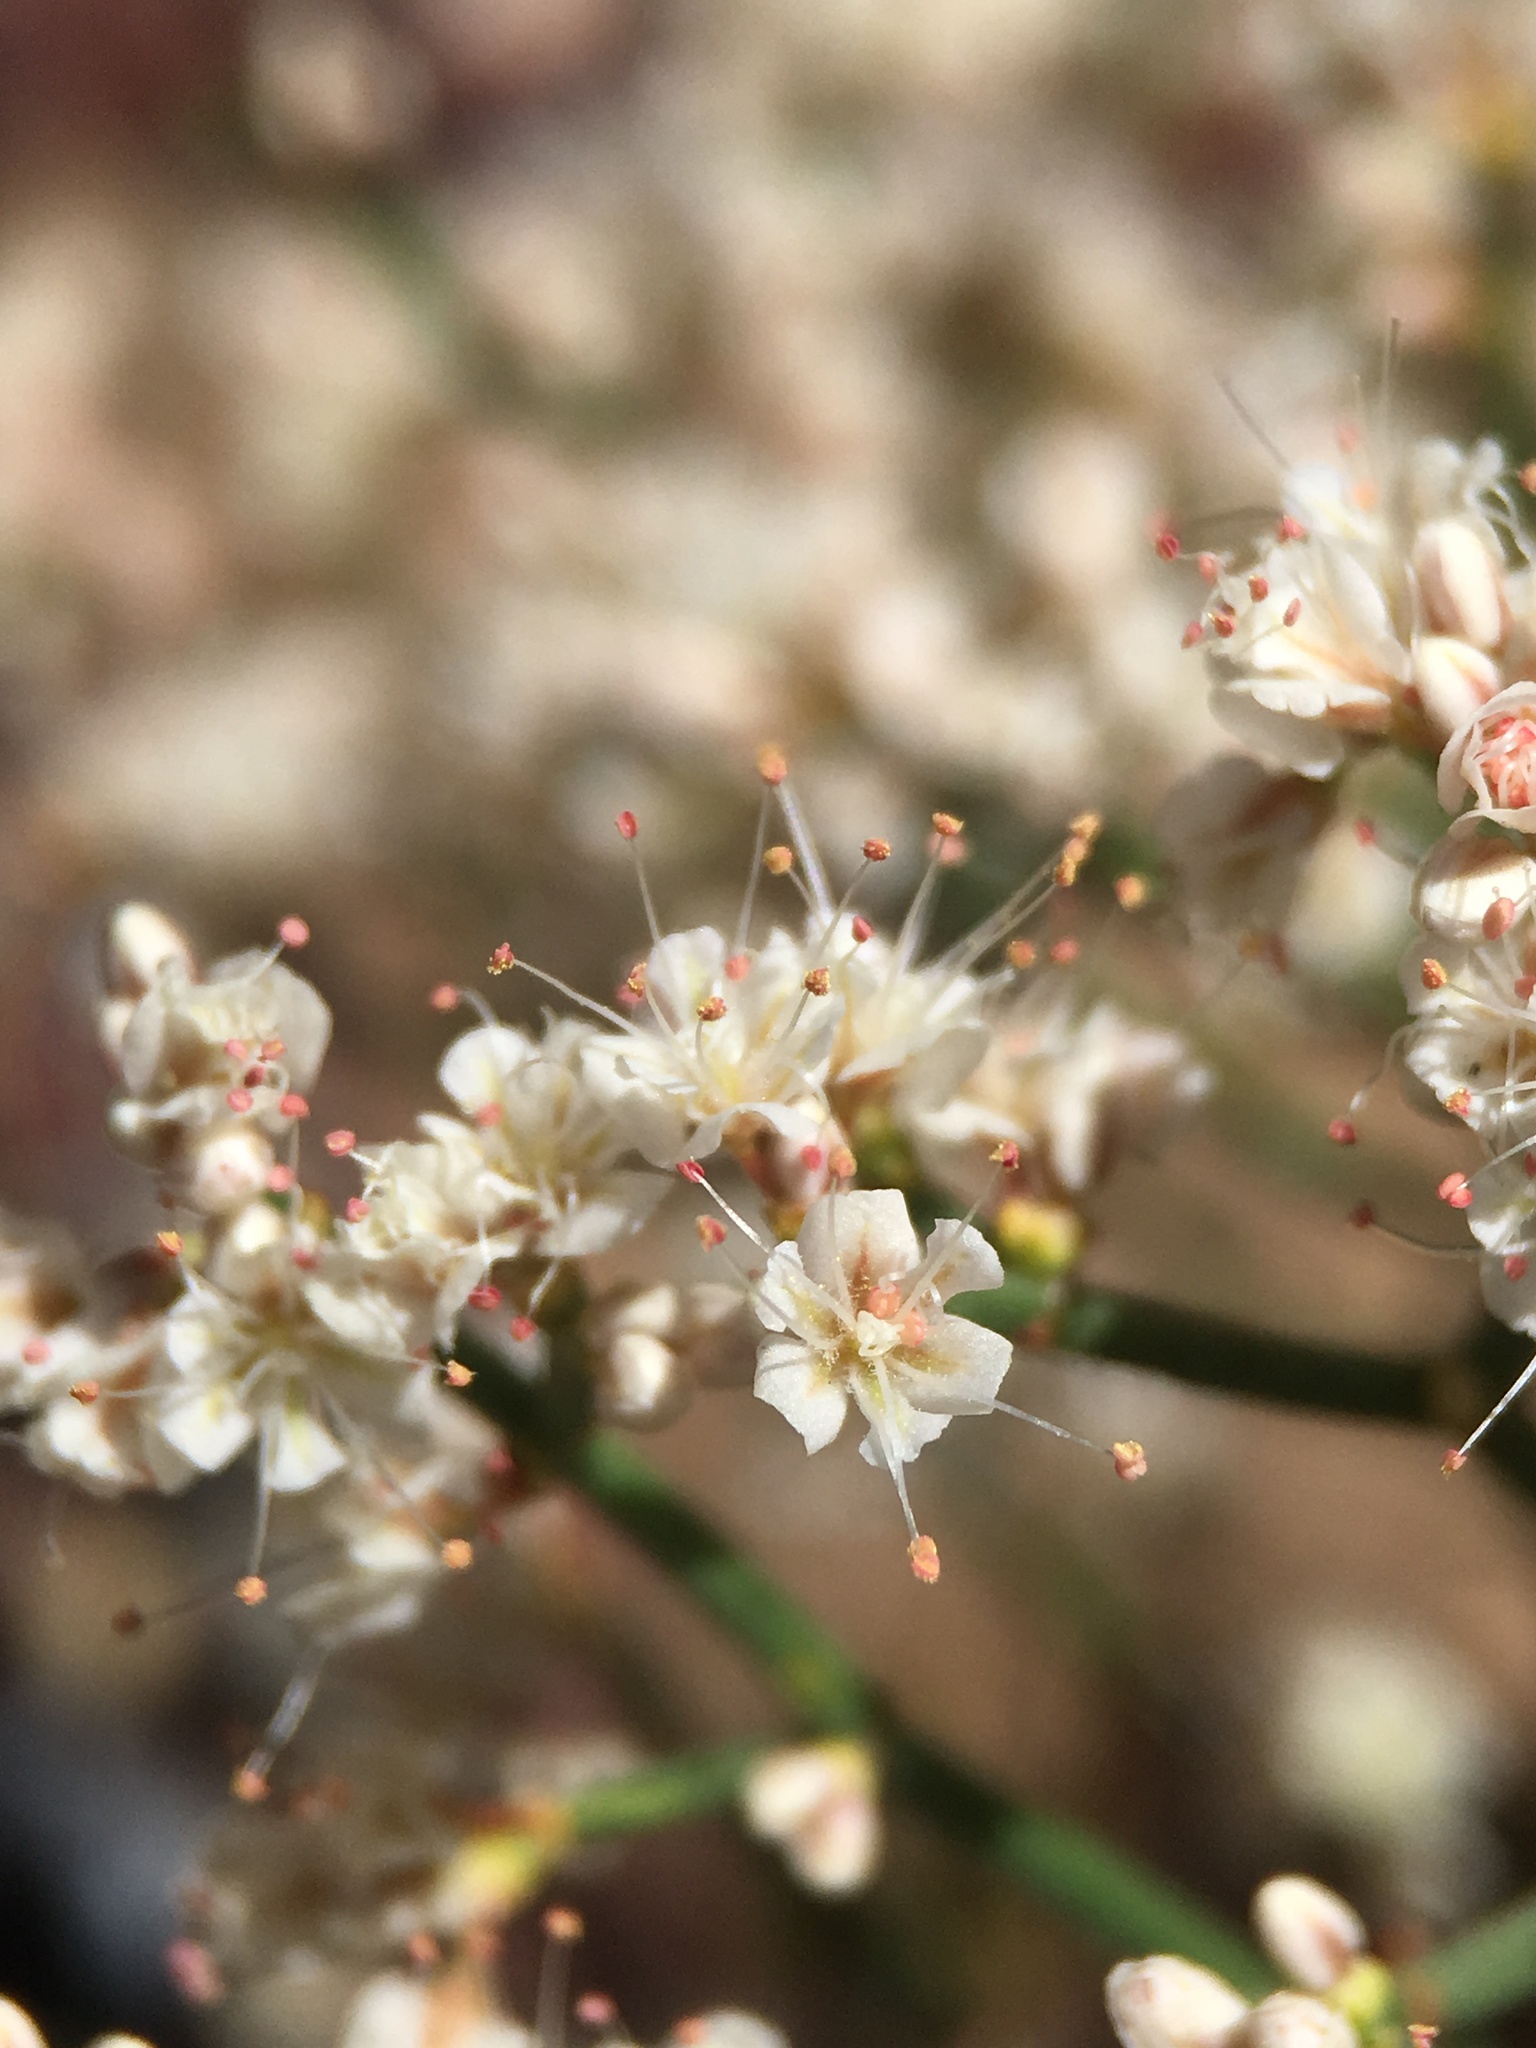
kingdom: Plantae
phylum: Tracheophyta
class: Magnoliopsida
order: Caryophyllales
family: Polygonaceae
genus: Eriogonum
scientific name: Eriogonum heermannii
